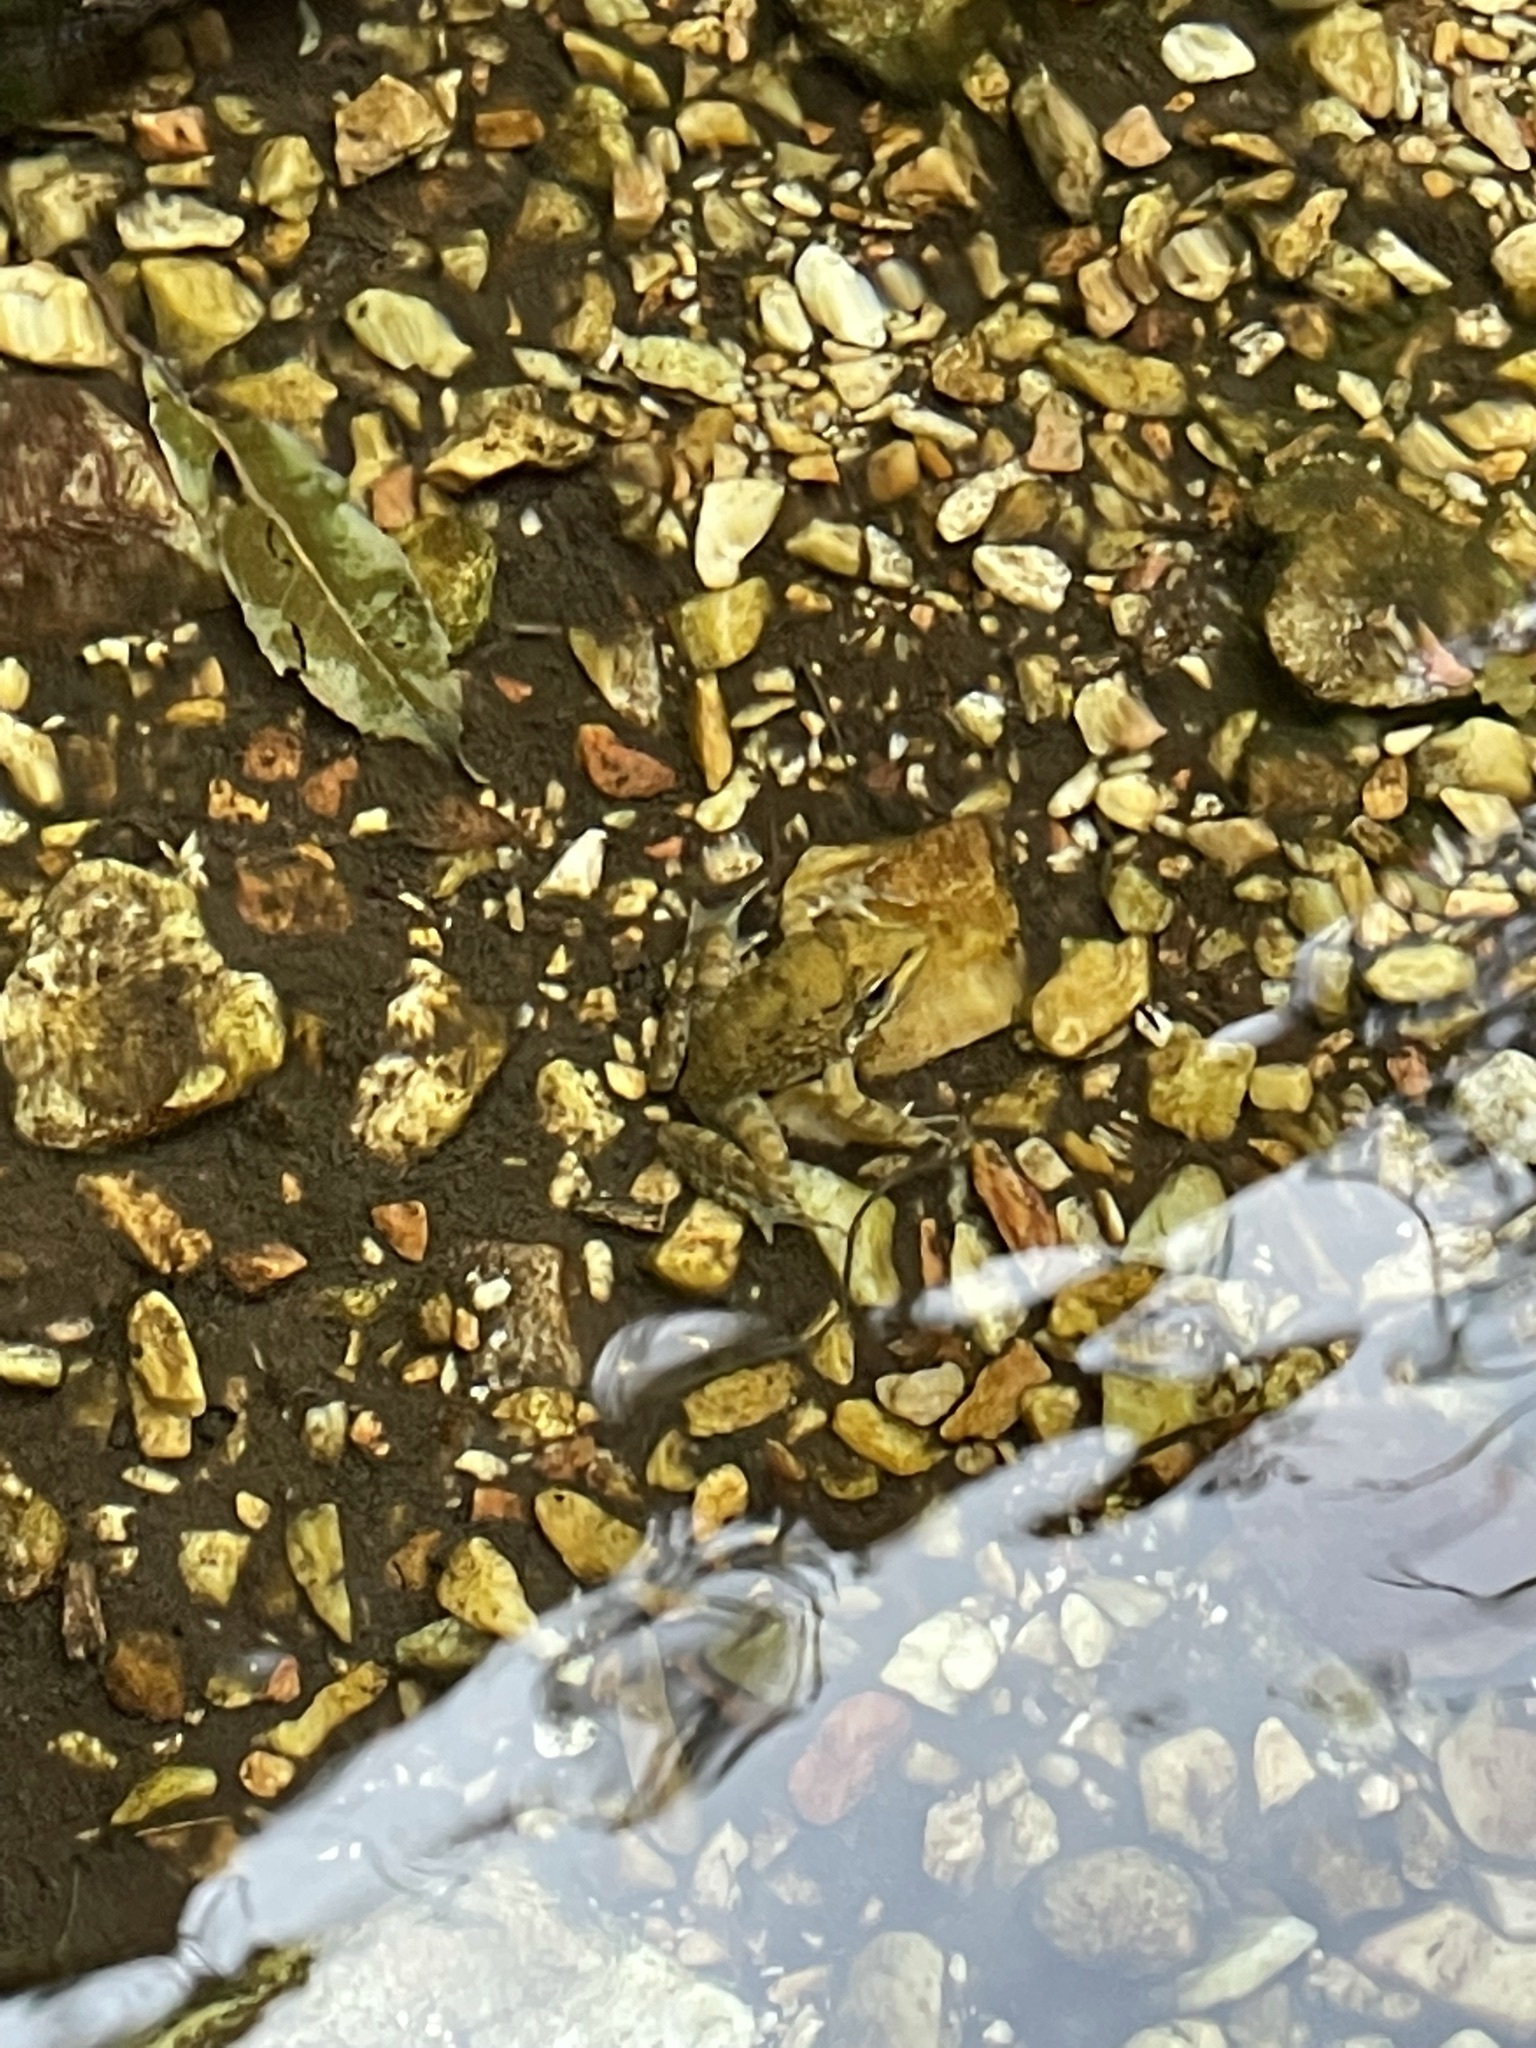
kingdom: Animalia
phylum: Chordata
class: Amphibia
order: Anura
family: Pyxicephalidae
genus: Amietia
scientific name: Amietia fuscigula
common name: Cape rana
